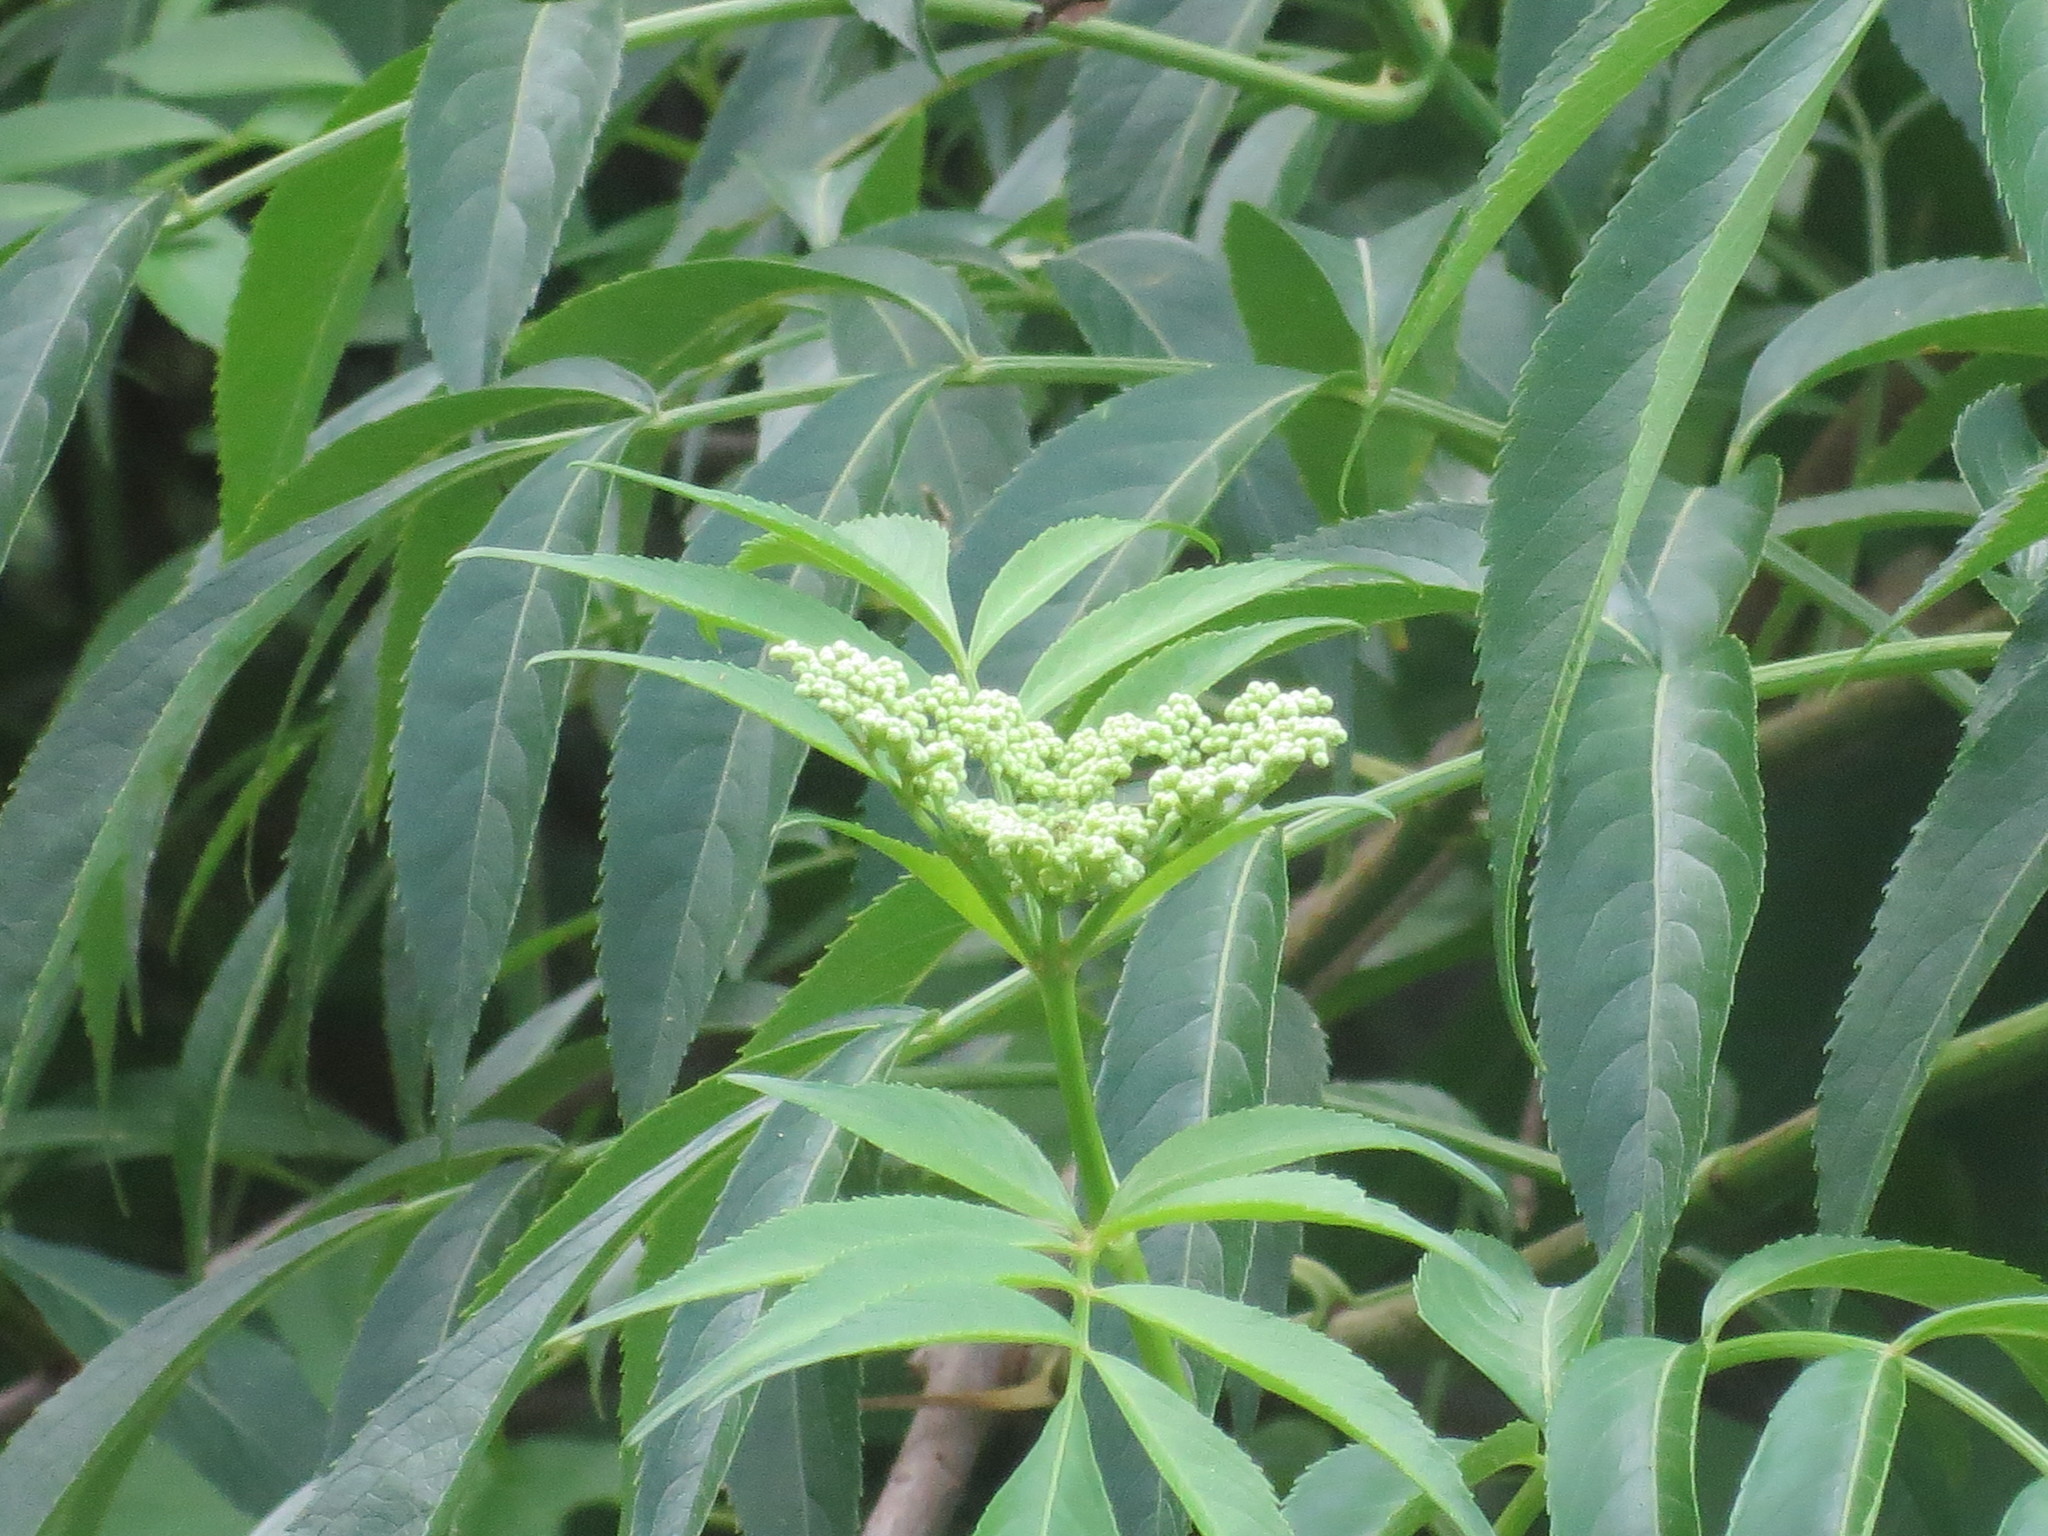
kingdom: Plantae
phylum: Tracheophyta
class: Magnoliopsida
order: Dipsacales
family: Viburnaceae
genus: Sambucus
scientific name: Sambucus canadensis
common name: American elder
